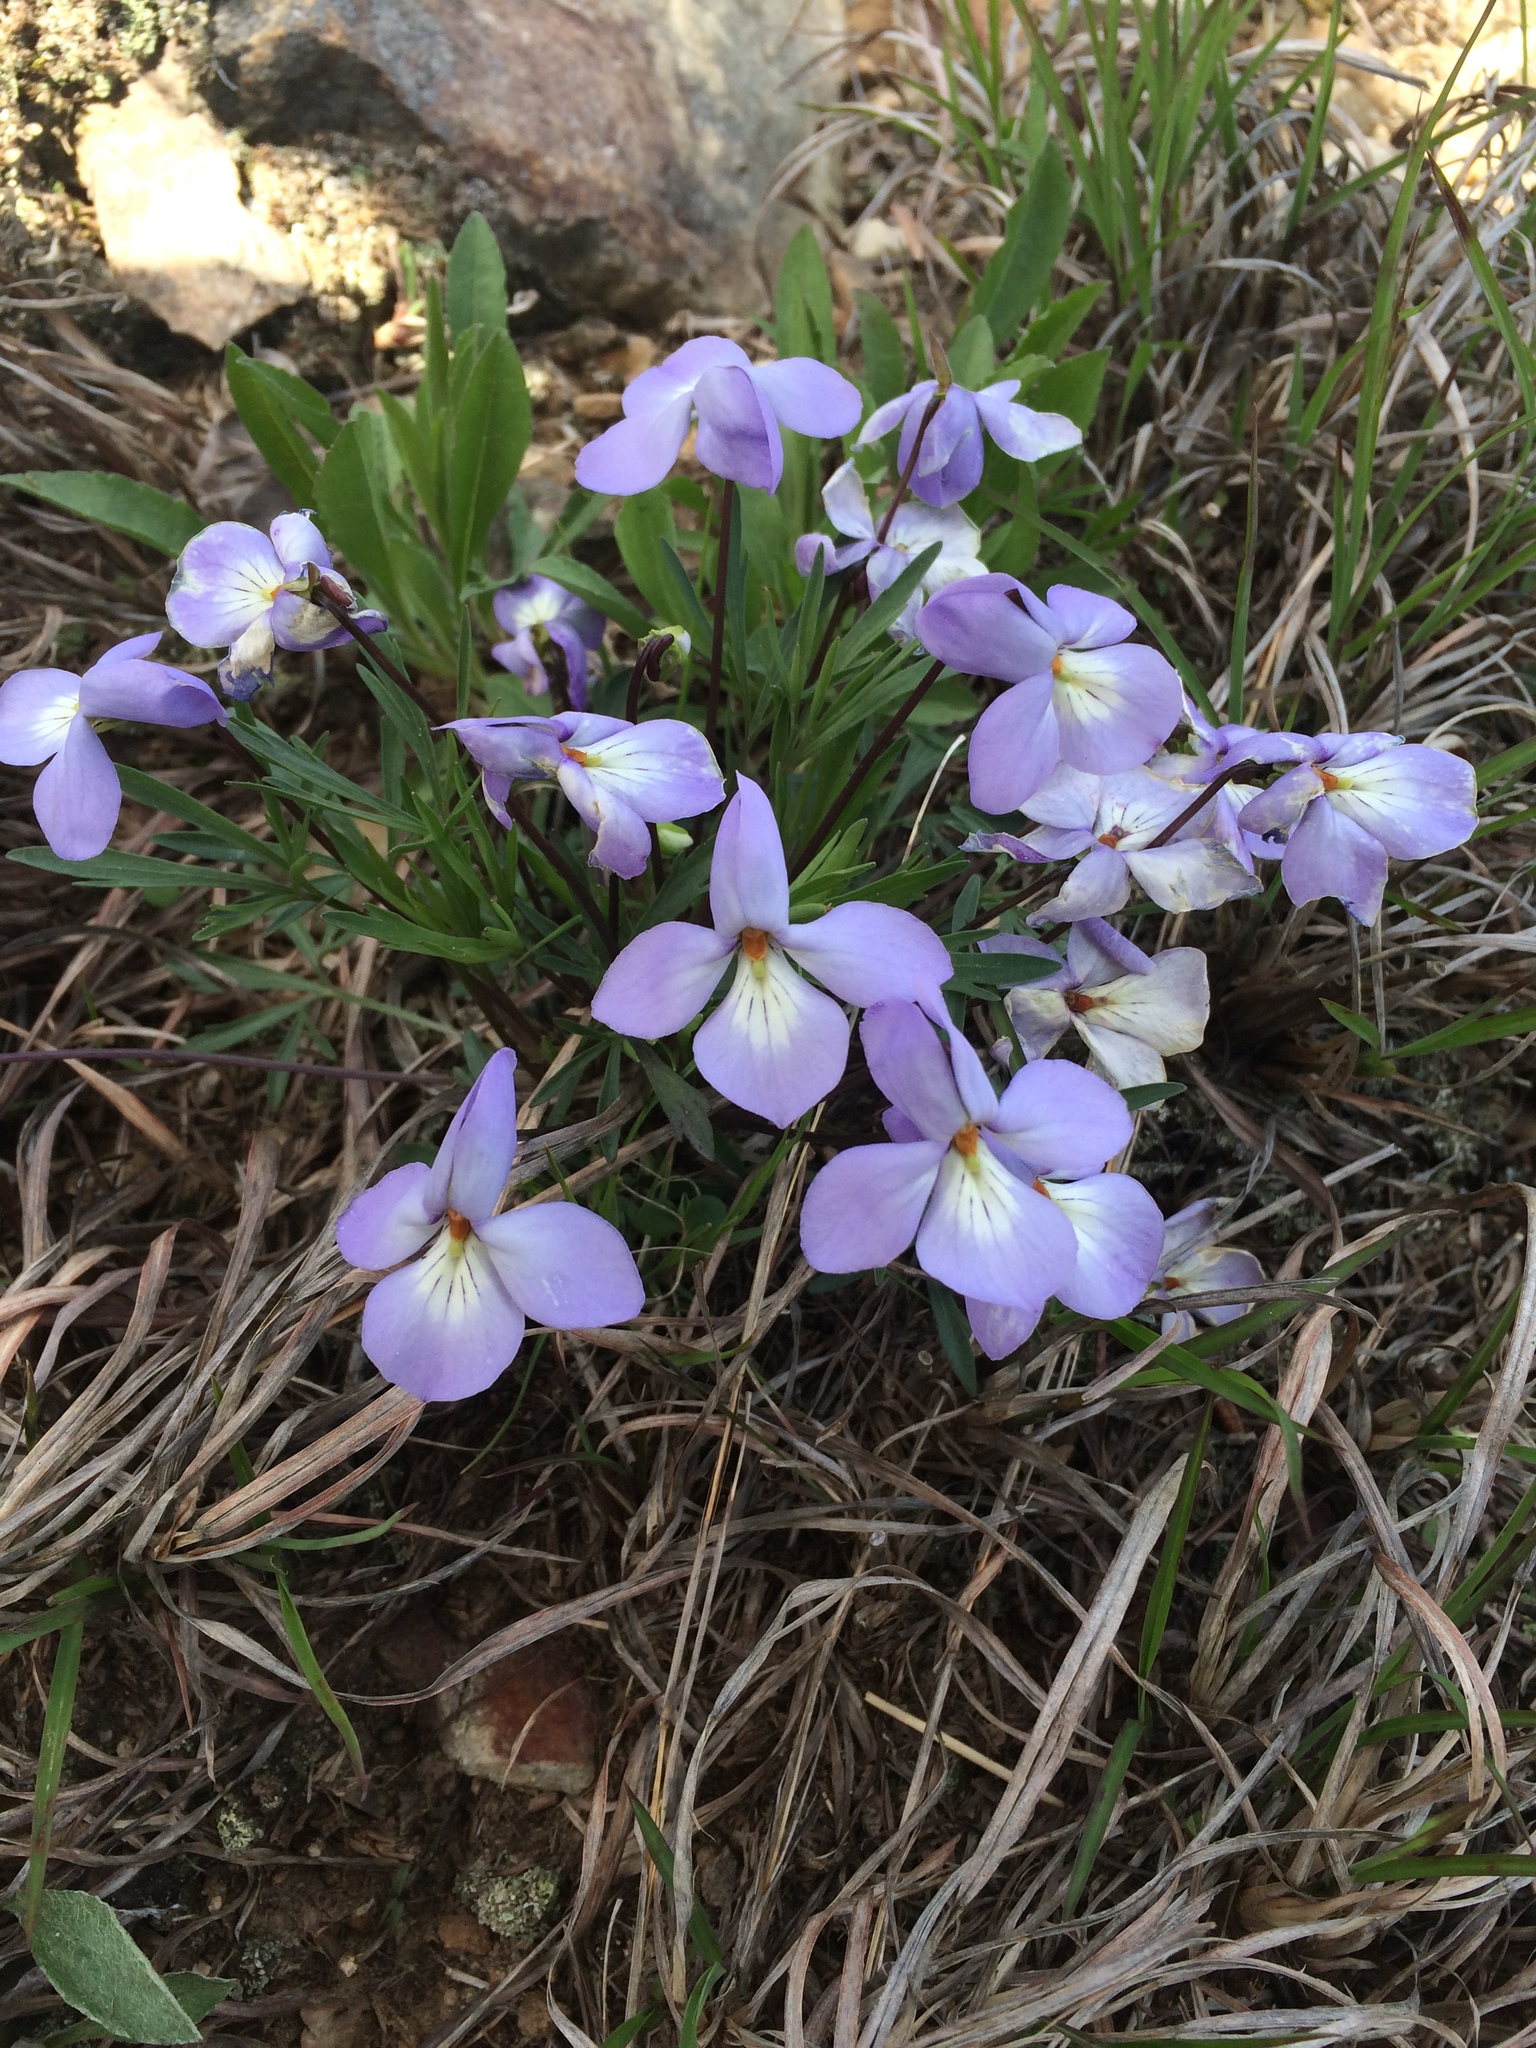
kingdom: Plantae
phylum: Tracheophyta
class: Magnoliopsida
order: Malpighiales
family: Violaceae
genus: Viola
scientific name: Viola pedata
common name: Pansy violet
